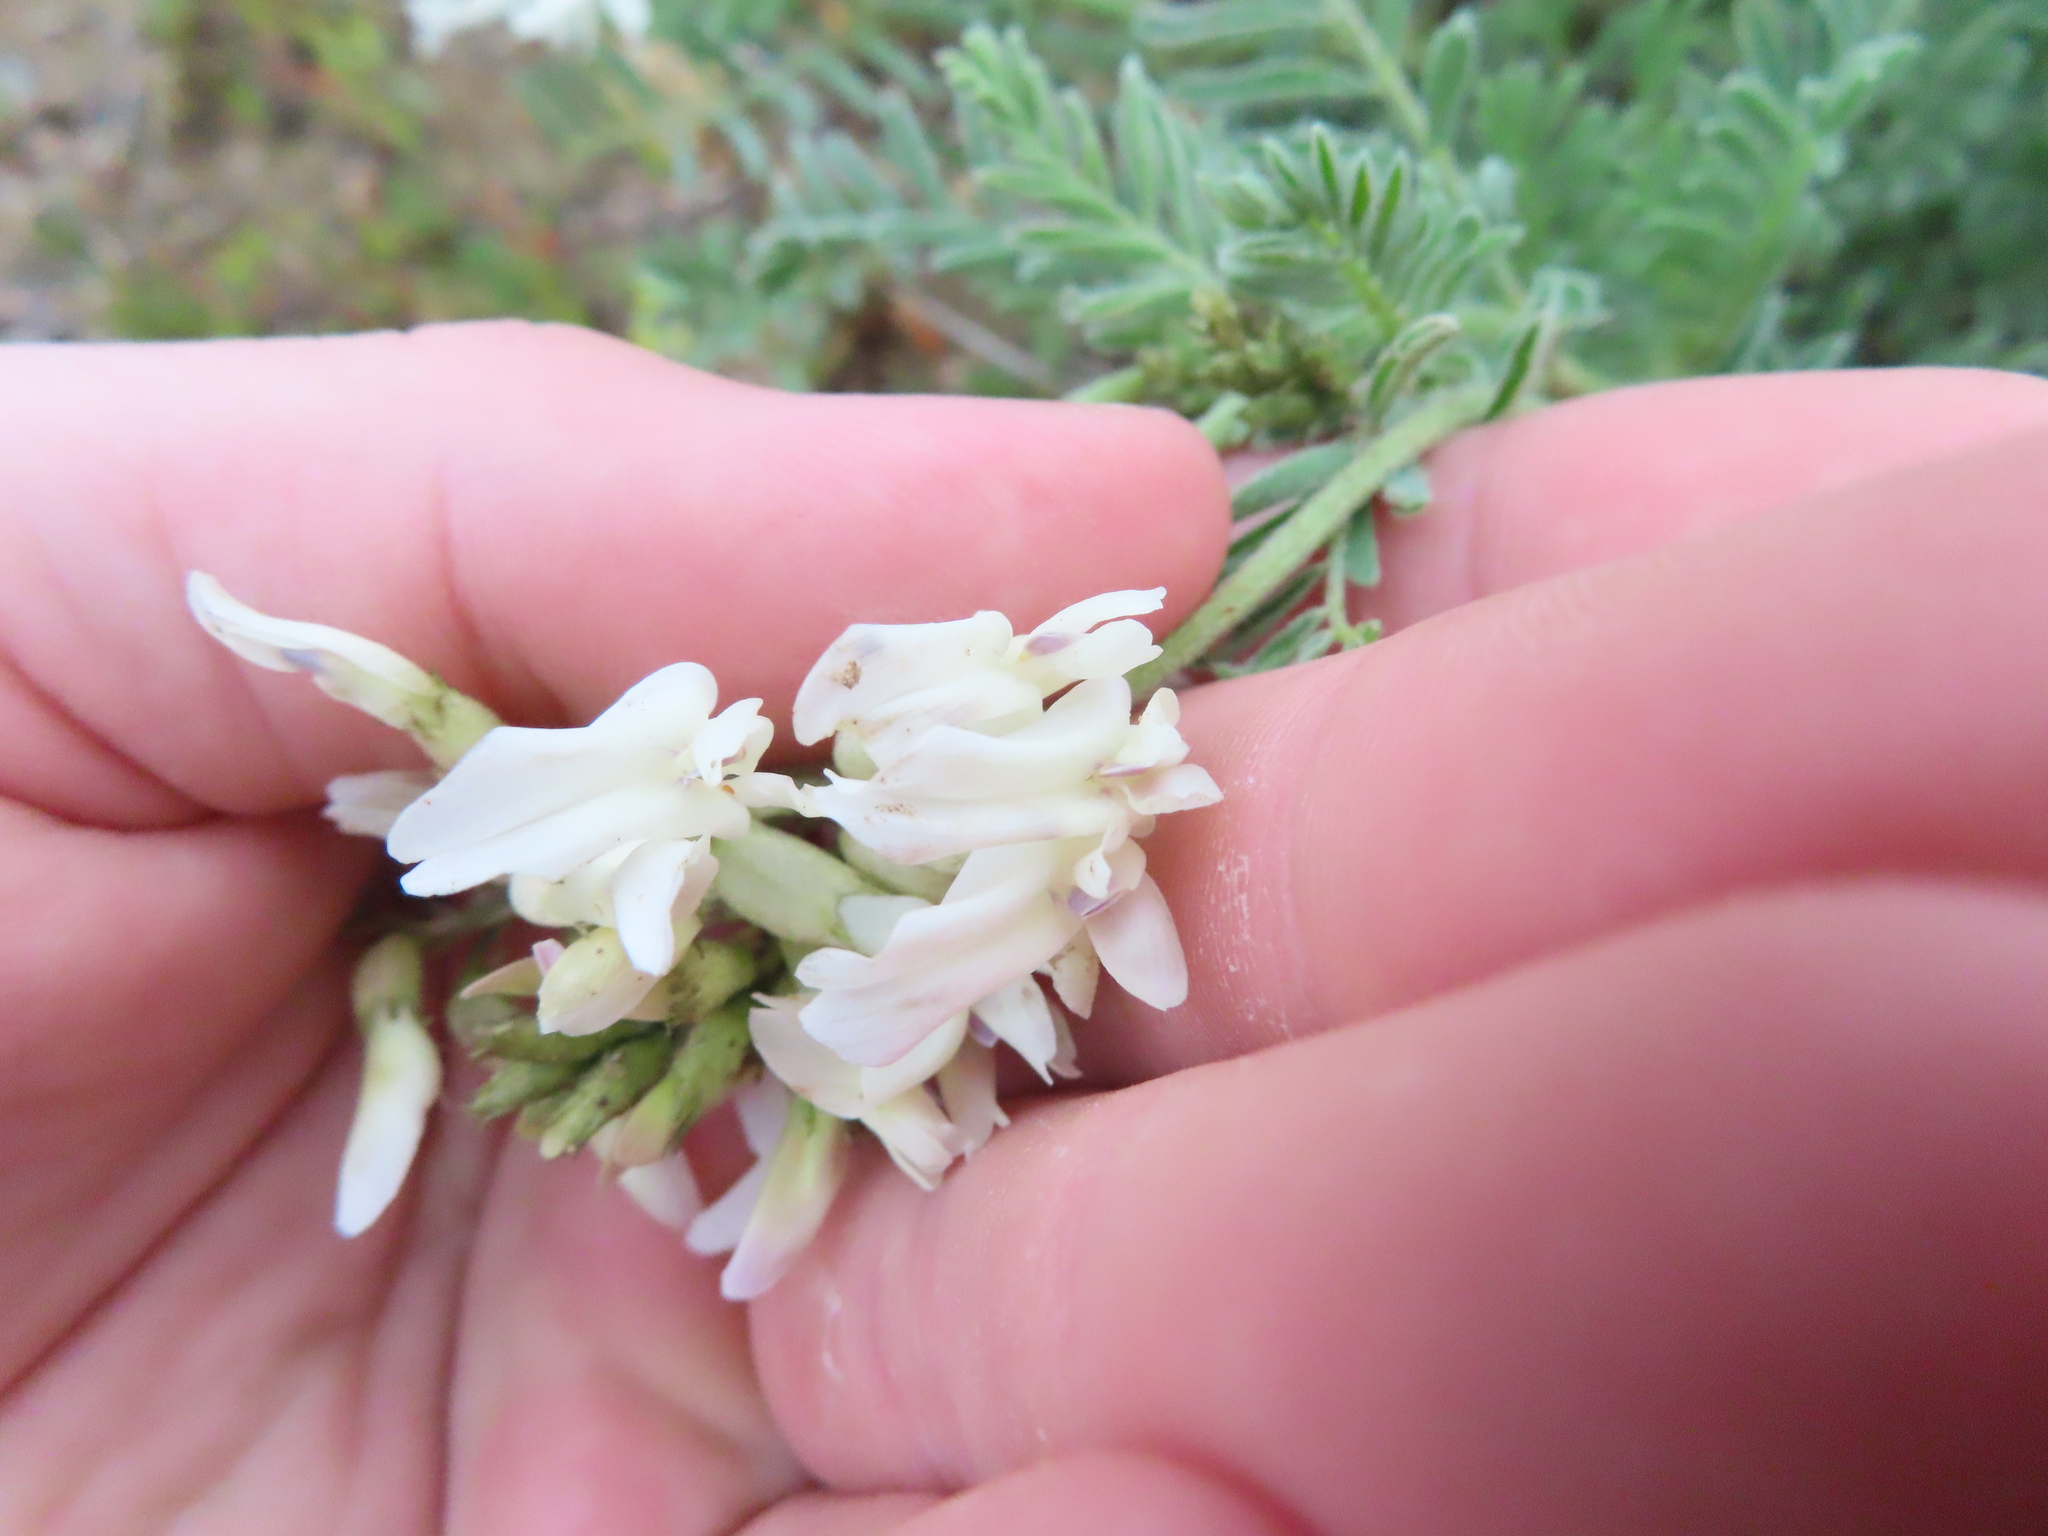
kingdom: Plantae
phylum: Tracheophyta
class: Magnoliopsida
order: Fabales
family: Fabaceae
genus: Astragalus
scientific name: Astragalus drummondii
